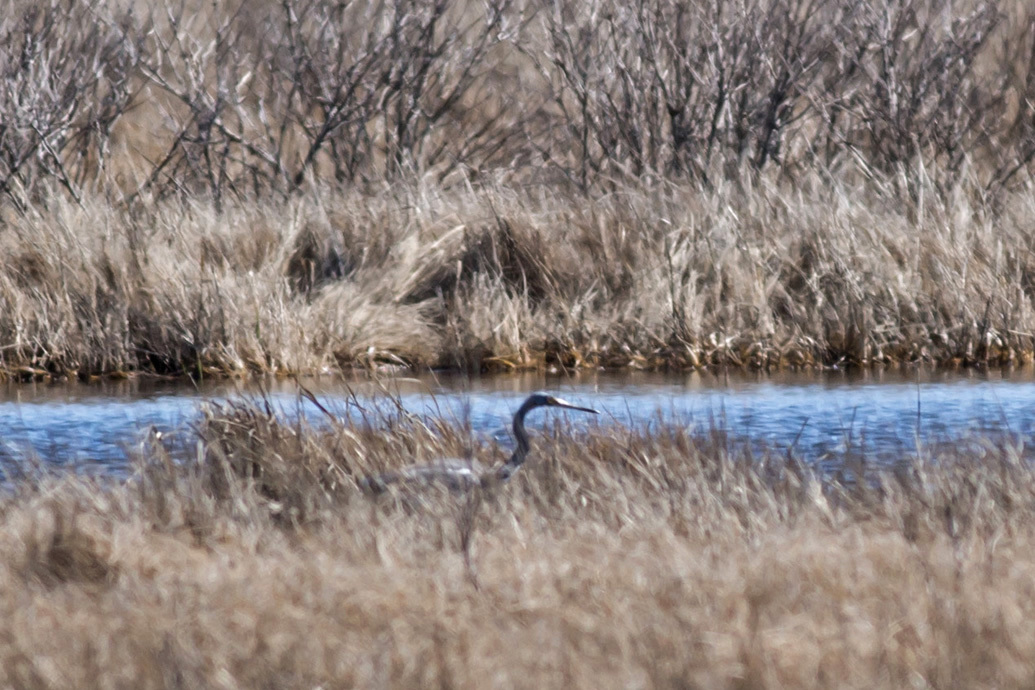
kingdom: Animalia
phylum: Chordata
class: Aves
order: Pelecaniformes
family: Ardeidae
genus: Egretta
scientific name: Egretta tricolor
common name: Tricolored heron
